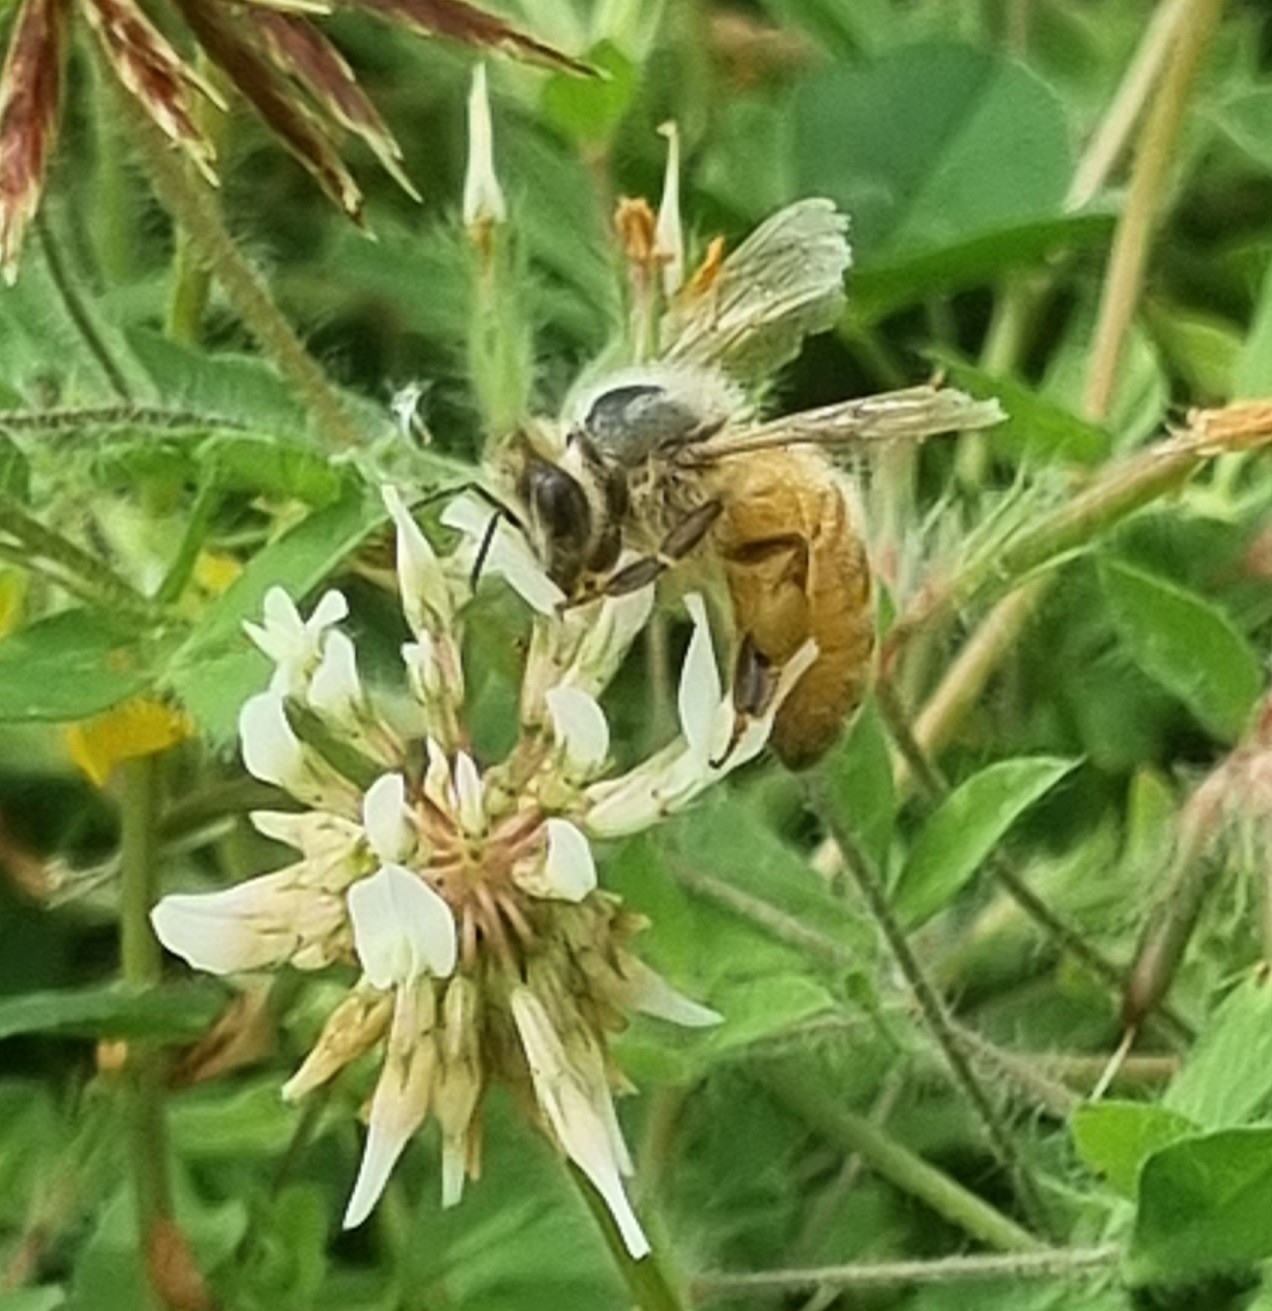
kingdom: Animalia
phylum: Arthropoda
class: Insecta
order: Hymenoptera
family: Apidae
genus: Apis
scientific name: Apis mellifera
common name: Honey bee
